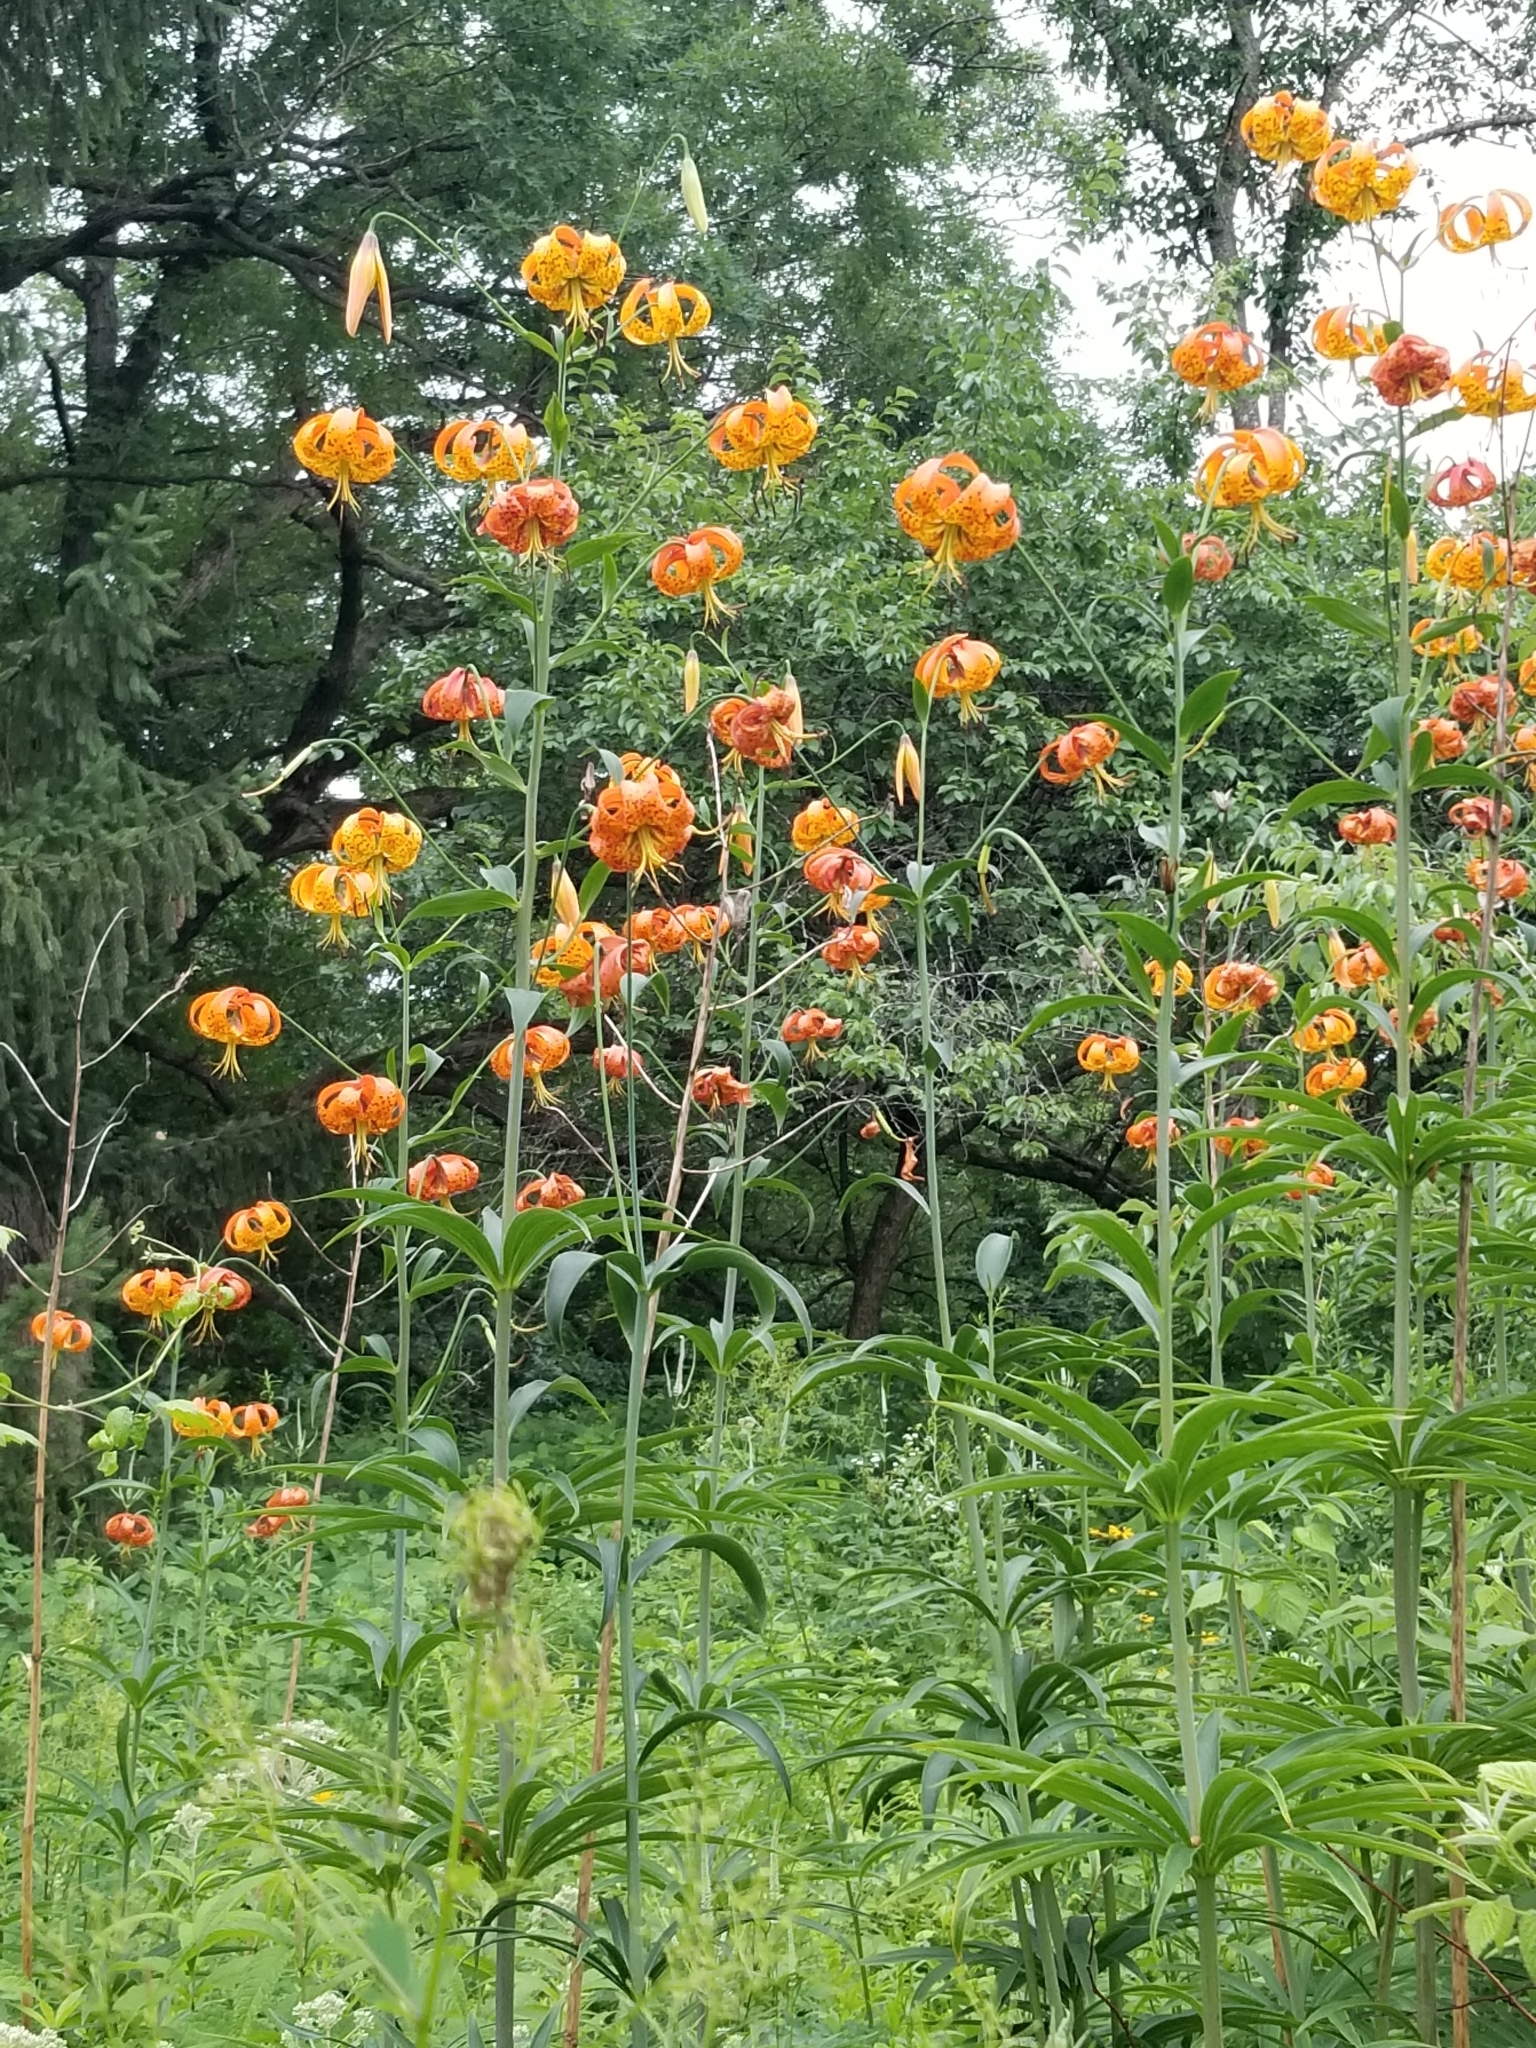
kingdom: Plantae
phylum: Tracheophyta
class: Liliopsida
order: Liliales
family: Liliaceae
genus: Lilium
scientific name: Lilium michiganense
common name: Michigan lily
